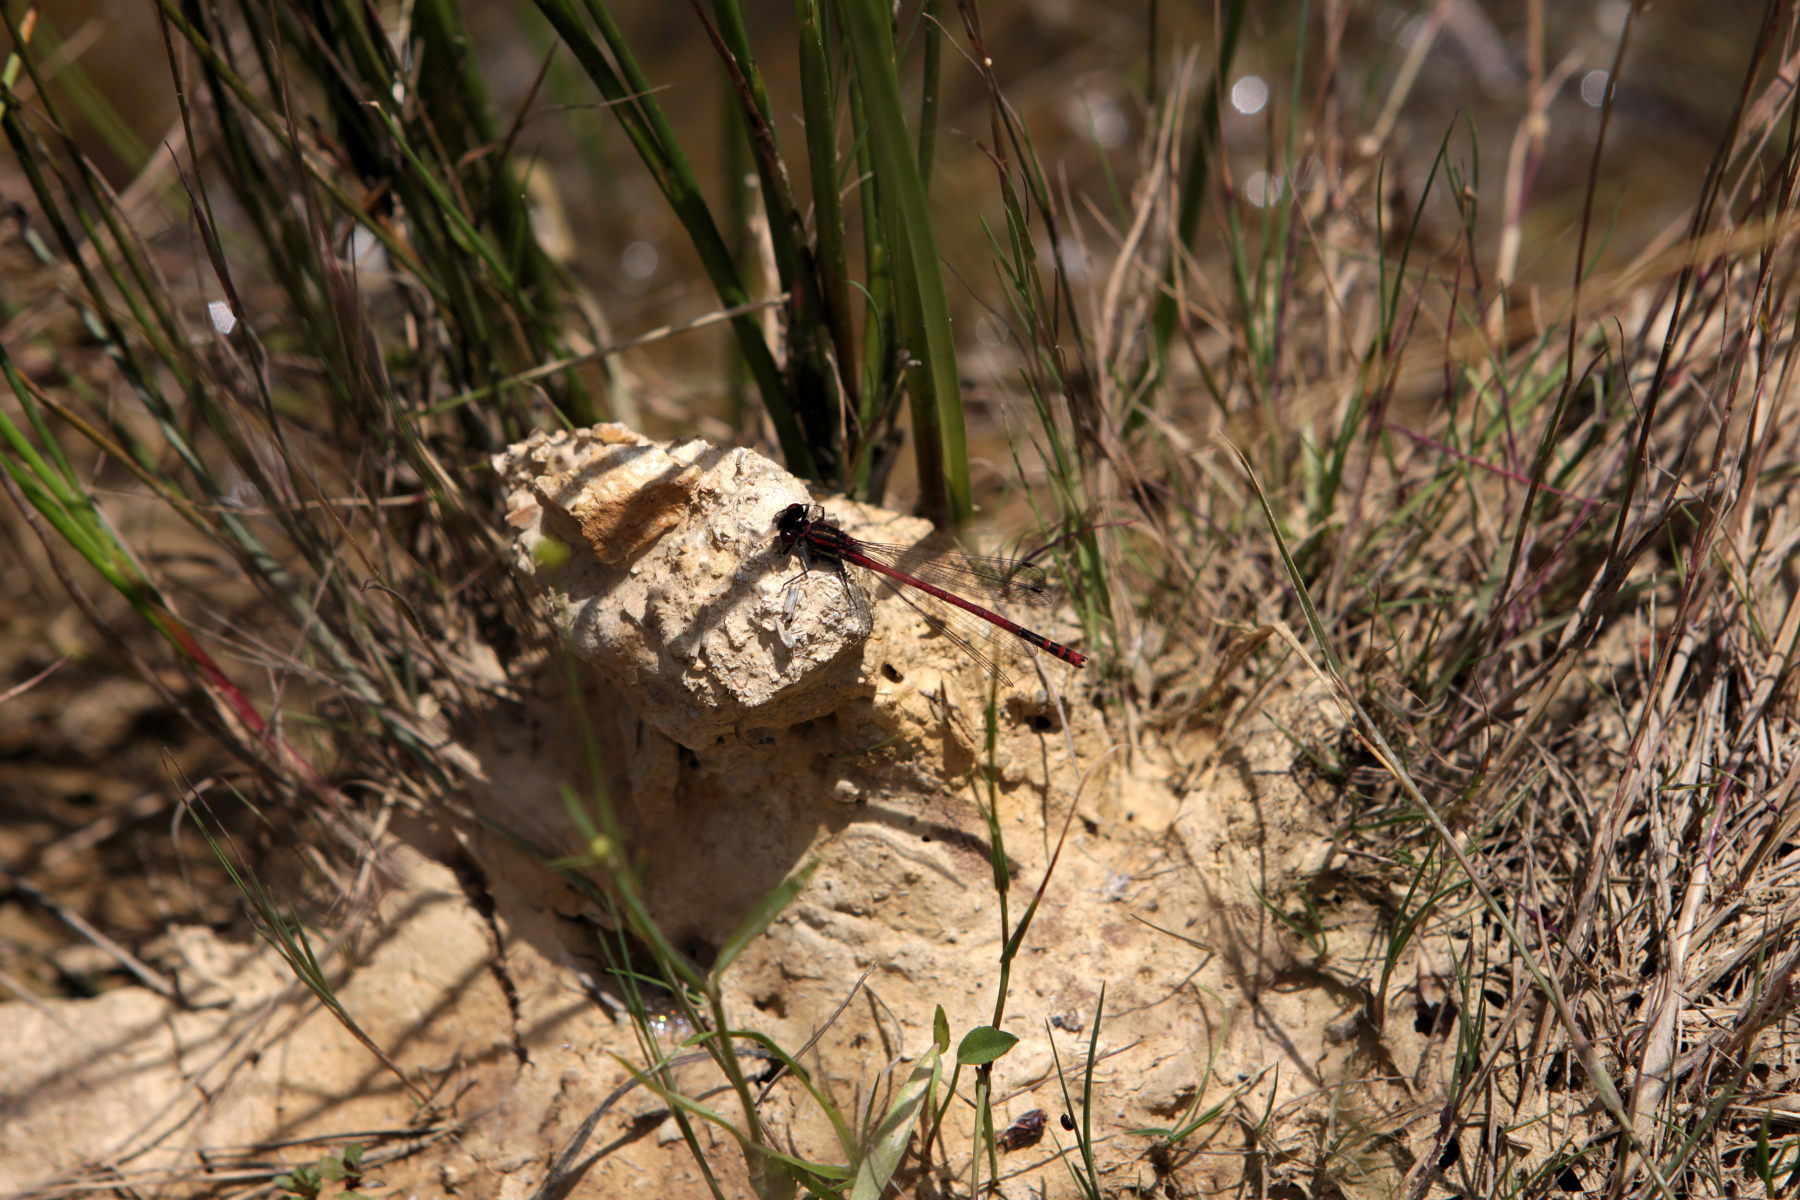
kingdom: Animalia
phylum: Arthropoda
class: Insecta
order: Odonata
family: Coenagrionidae
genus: Pyrrhosoma
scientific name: Pyrrhosoma nymphula
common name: Large red damsel
